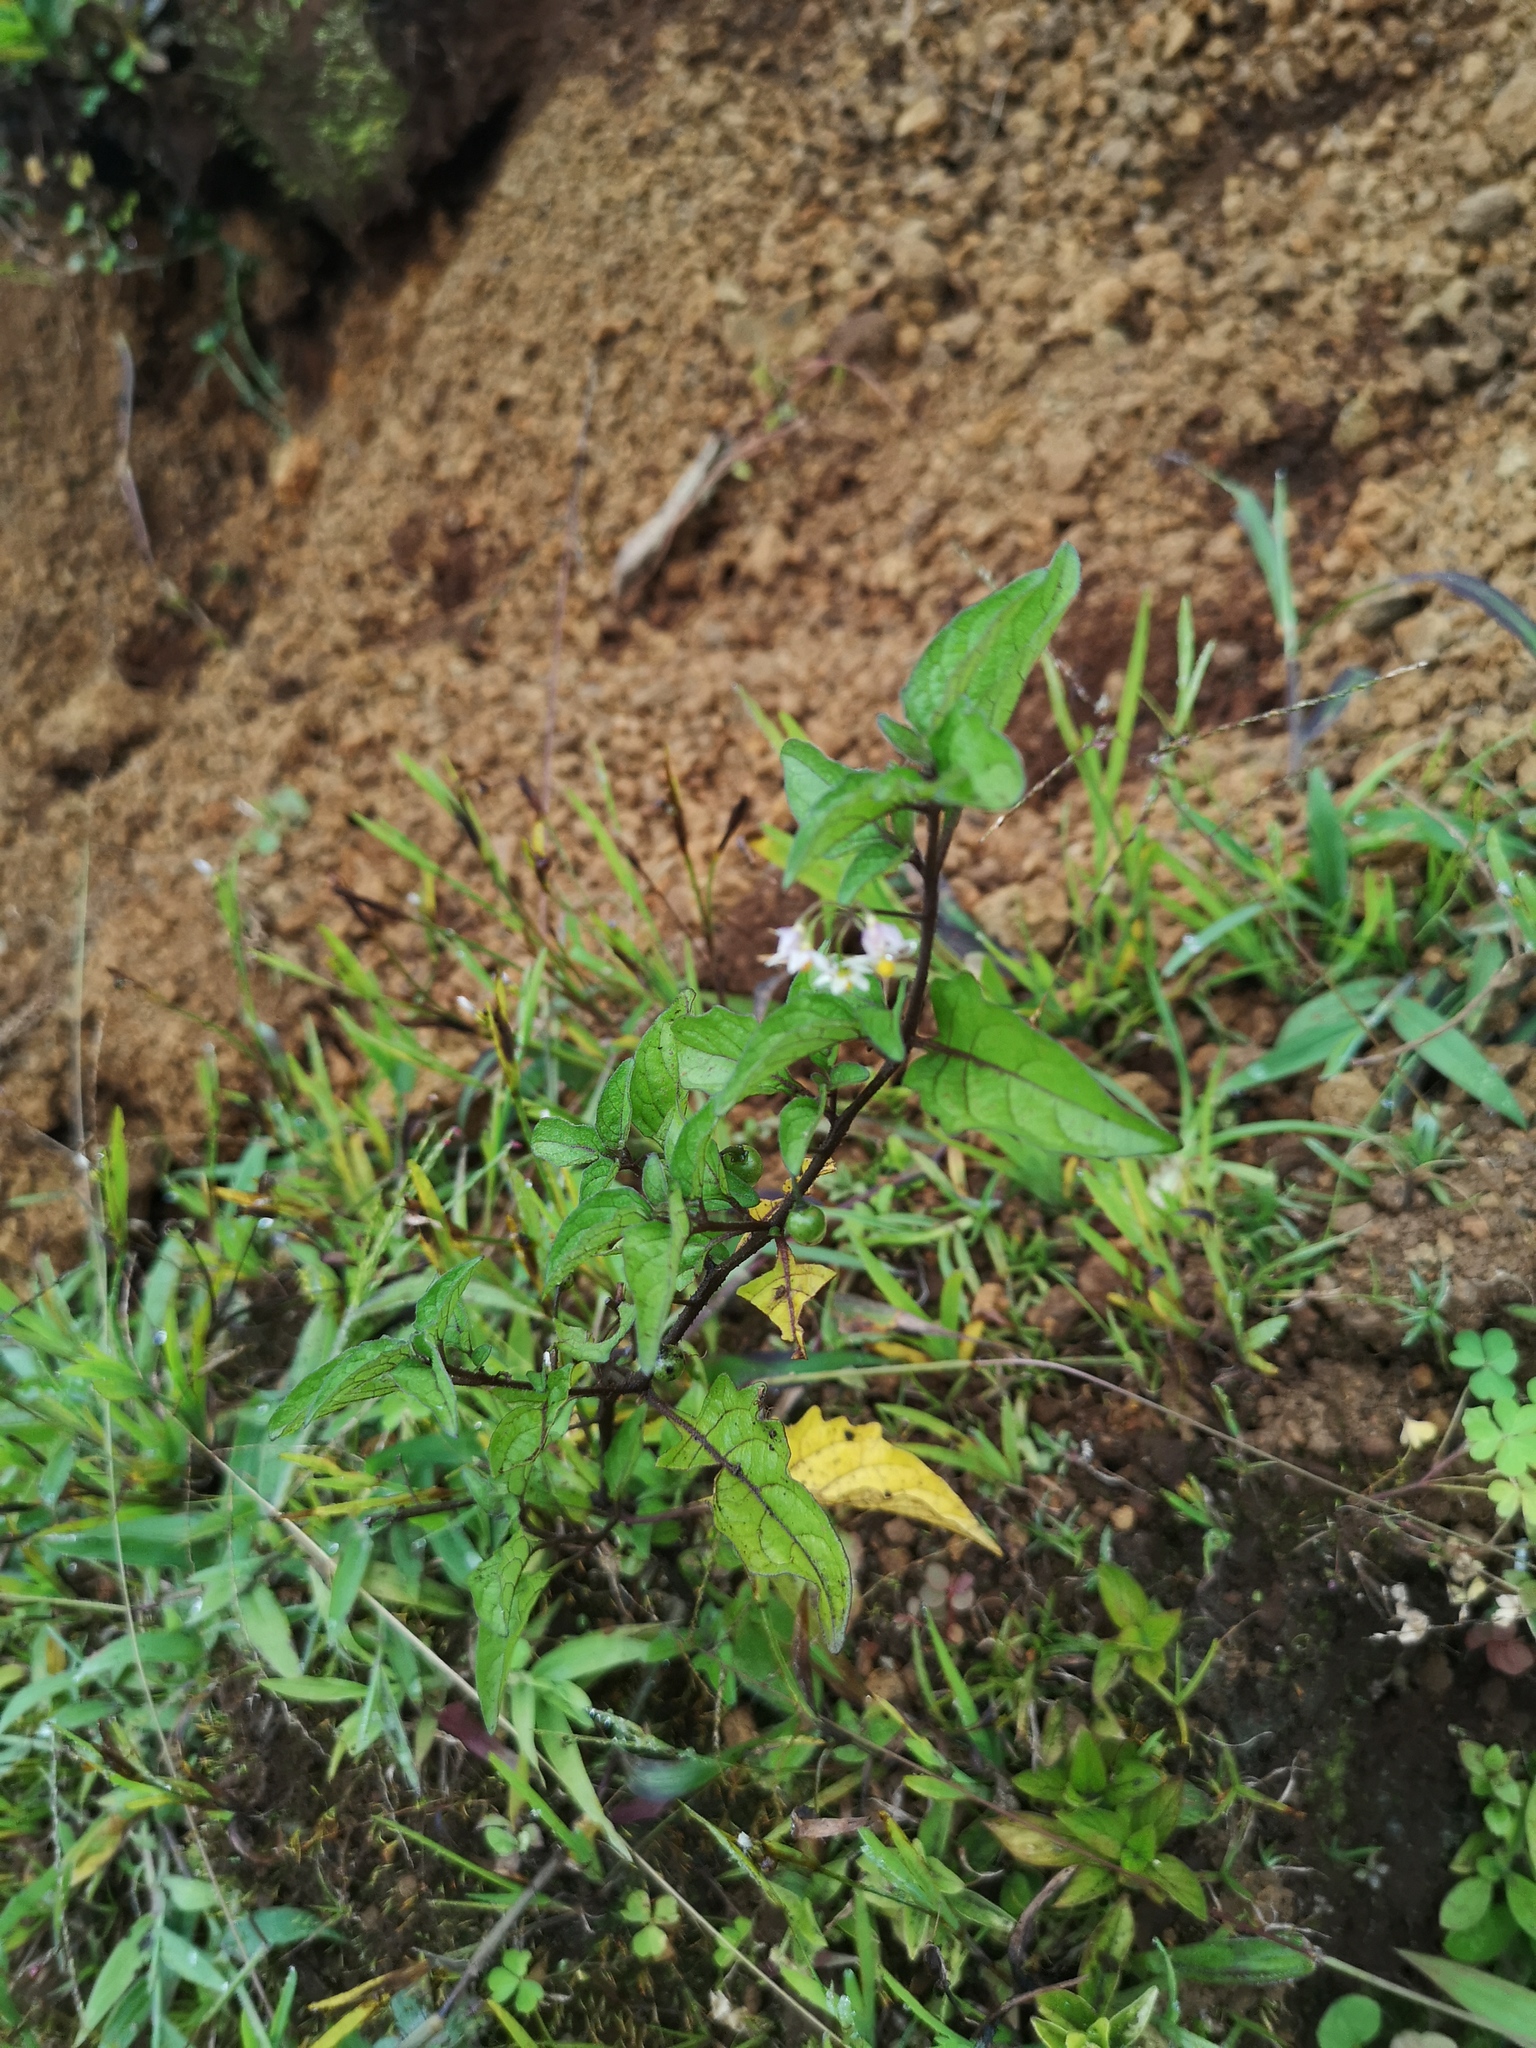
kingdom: Plantae
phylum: Tracheophyta
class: Magnoliopsida
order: Solanales
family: Solanaceae
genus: Solanum
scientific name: Solanum americanum
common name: American black nightshade
